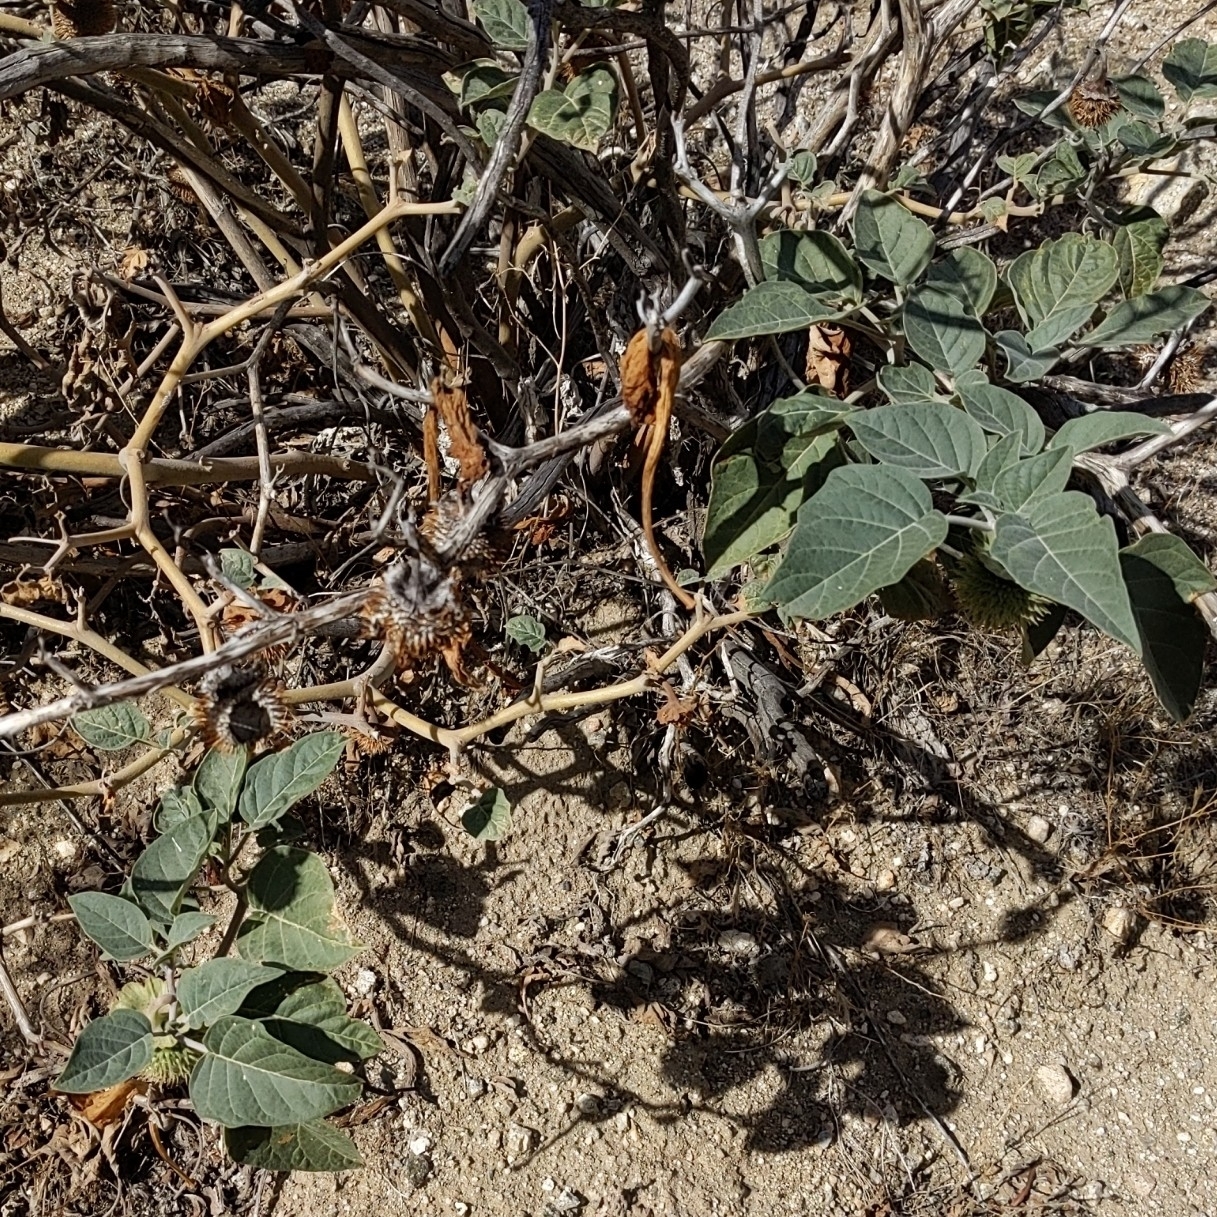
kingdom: Plantae
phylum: Tracheophyta
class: Magnoliopsida
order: Solanales
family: Solanaceae
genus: Datura
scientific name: Datura wrightii
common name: Sacred thorn-apple
